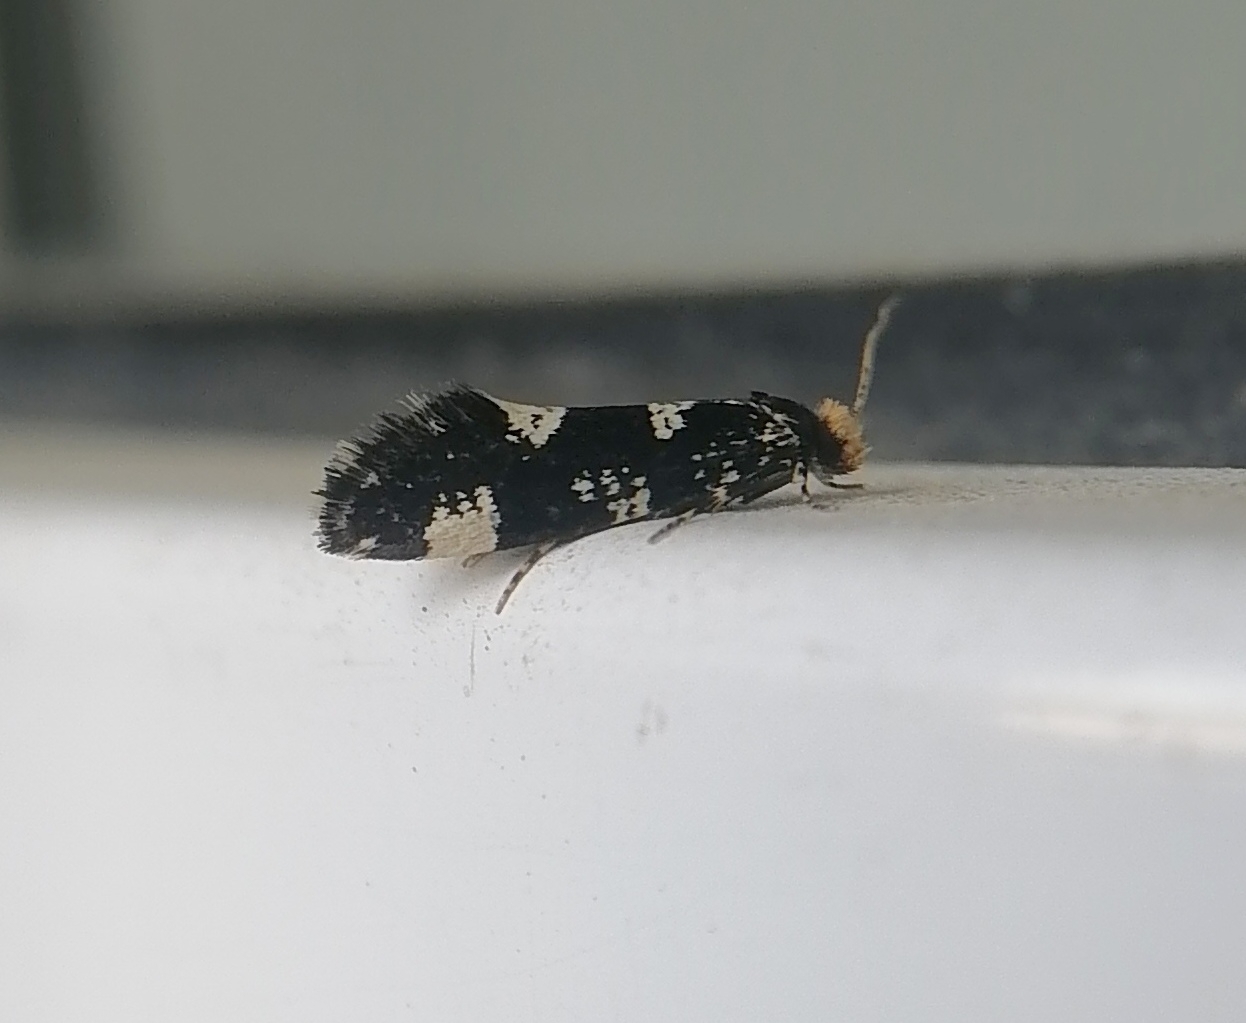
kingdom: Animalia
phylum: Arthropoda
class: Insecta
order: Lepidoptera
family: Tineidae
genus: Triaxomera
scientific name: Triaxomera fulvimitrella
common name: Four-spotted clothes
